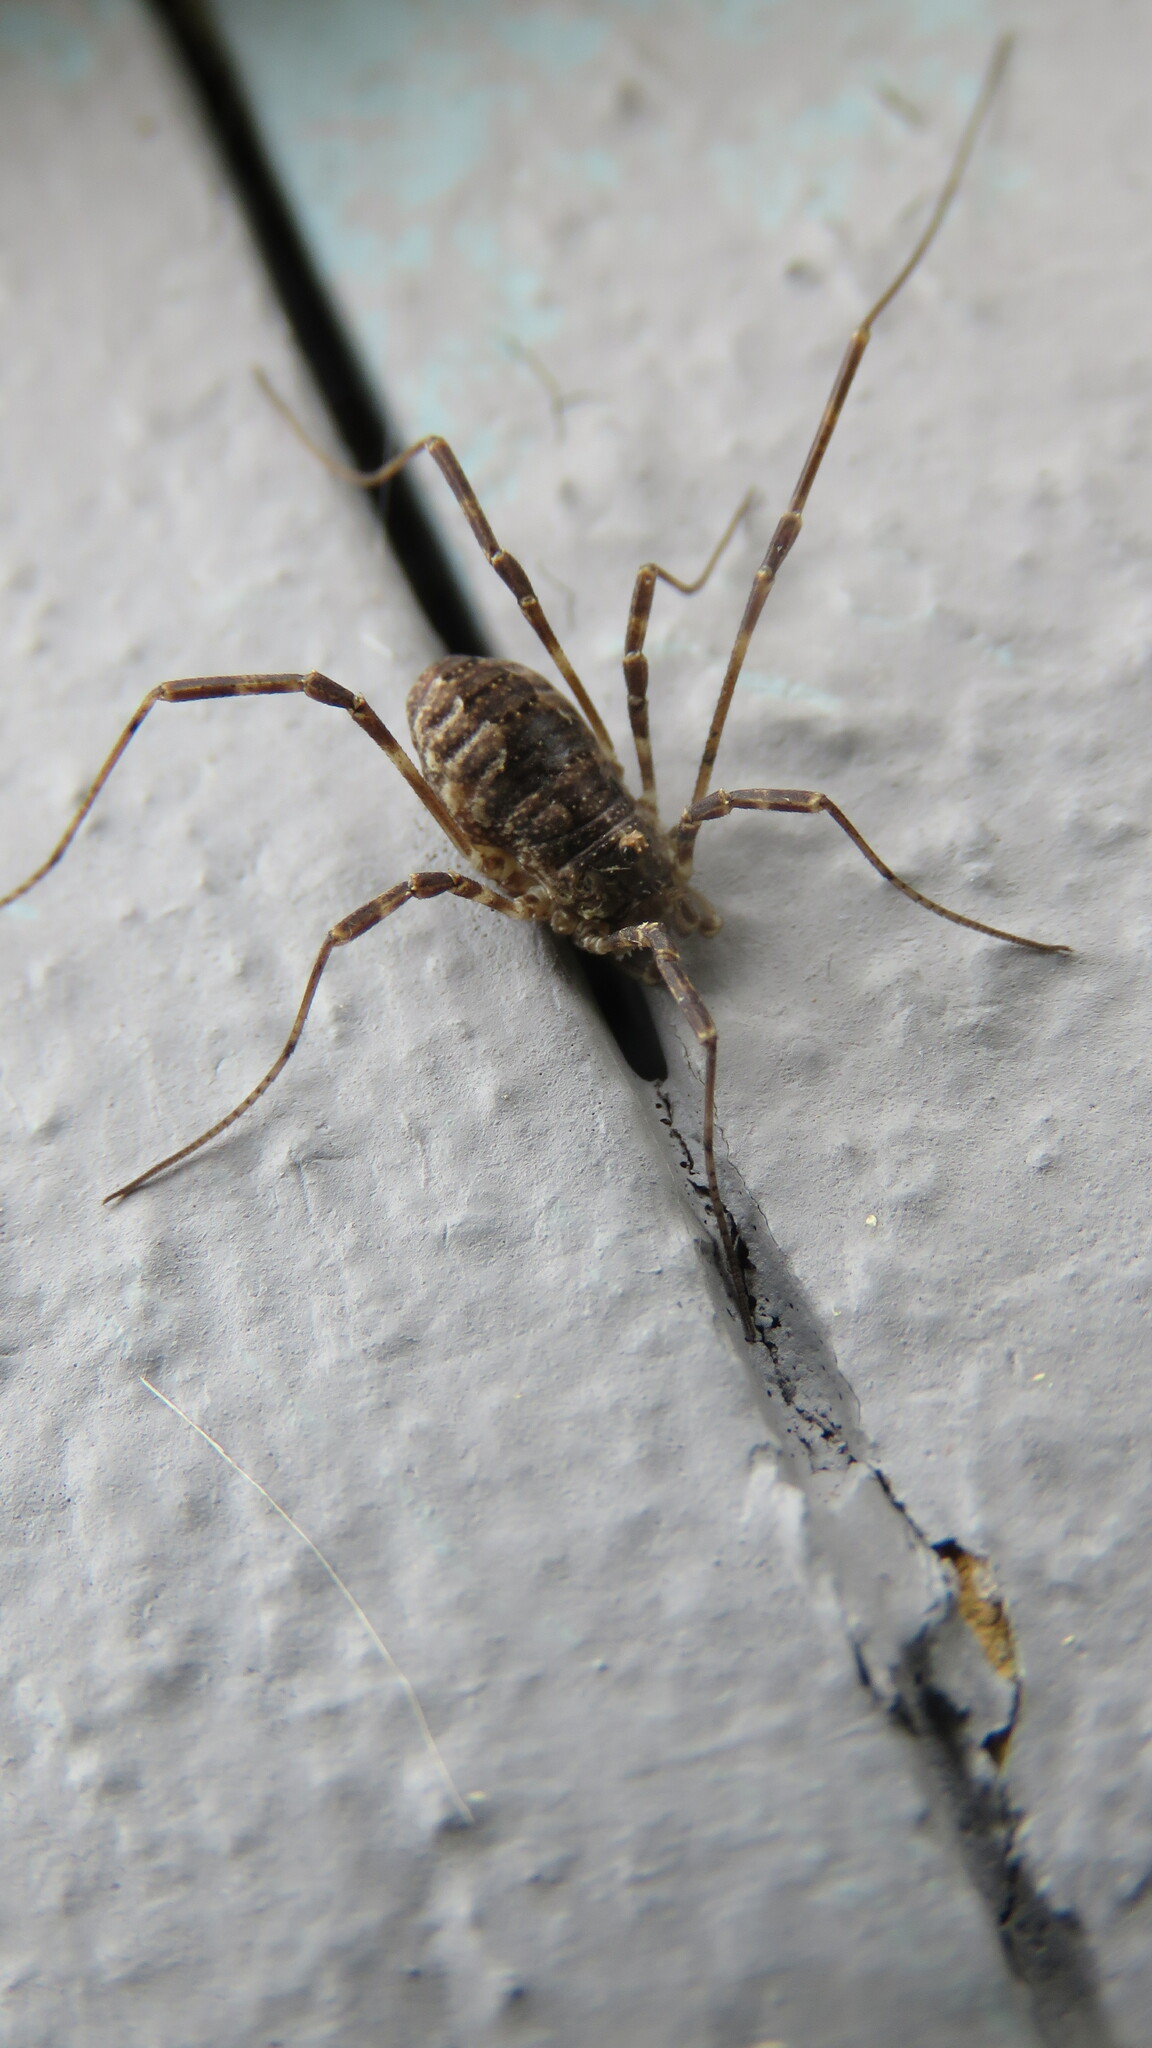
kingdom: Animalia
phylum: Arthropoda
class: Arachnida
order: Opiliones
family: Phalangiidae
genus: Odiellus
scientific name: Odiellus pictus
